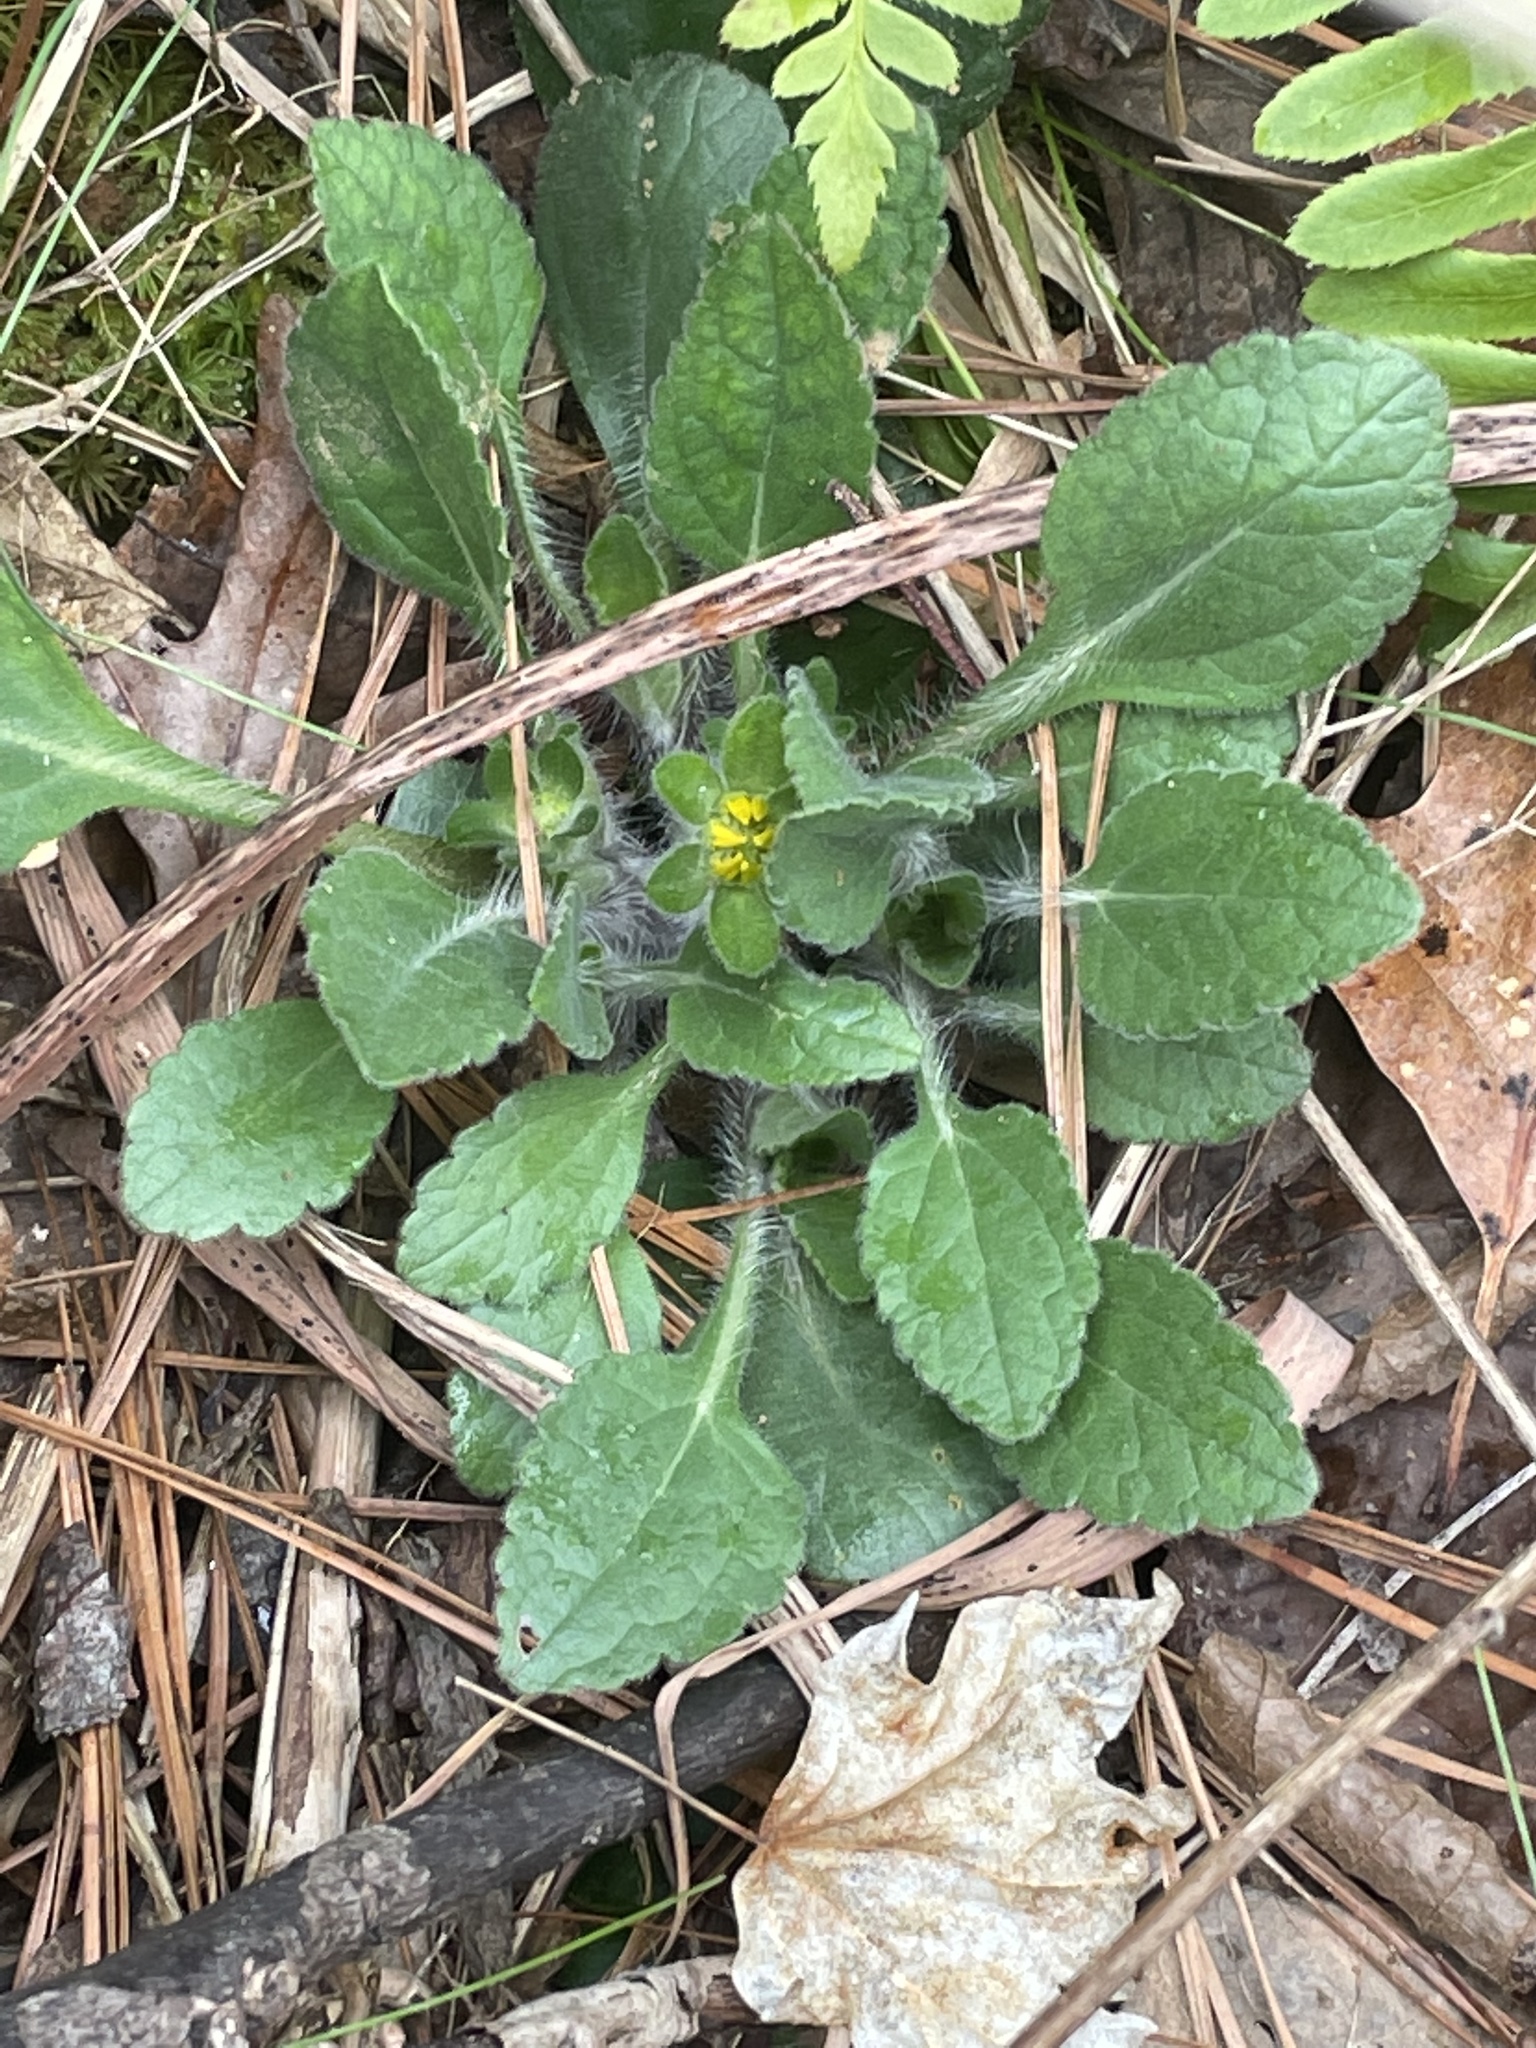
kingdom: Plantae
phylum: Tracheophyta
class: Magnoliopsida
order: Asterales
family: Asteraceae
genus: Chrysogonum
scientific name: Chrysogonum virginianum
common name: Golden-knee
